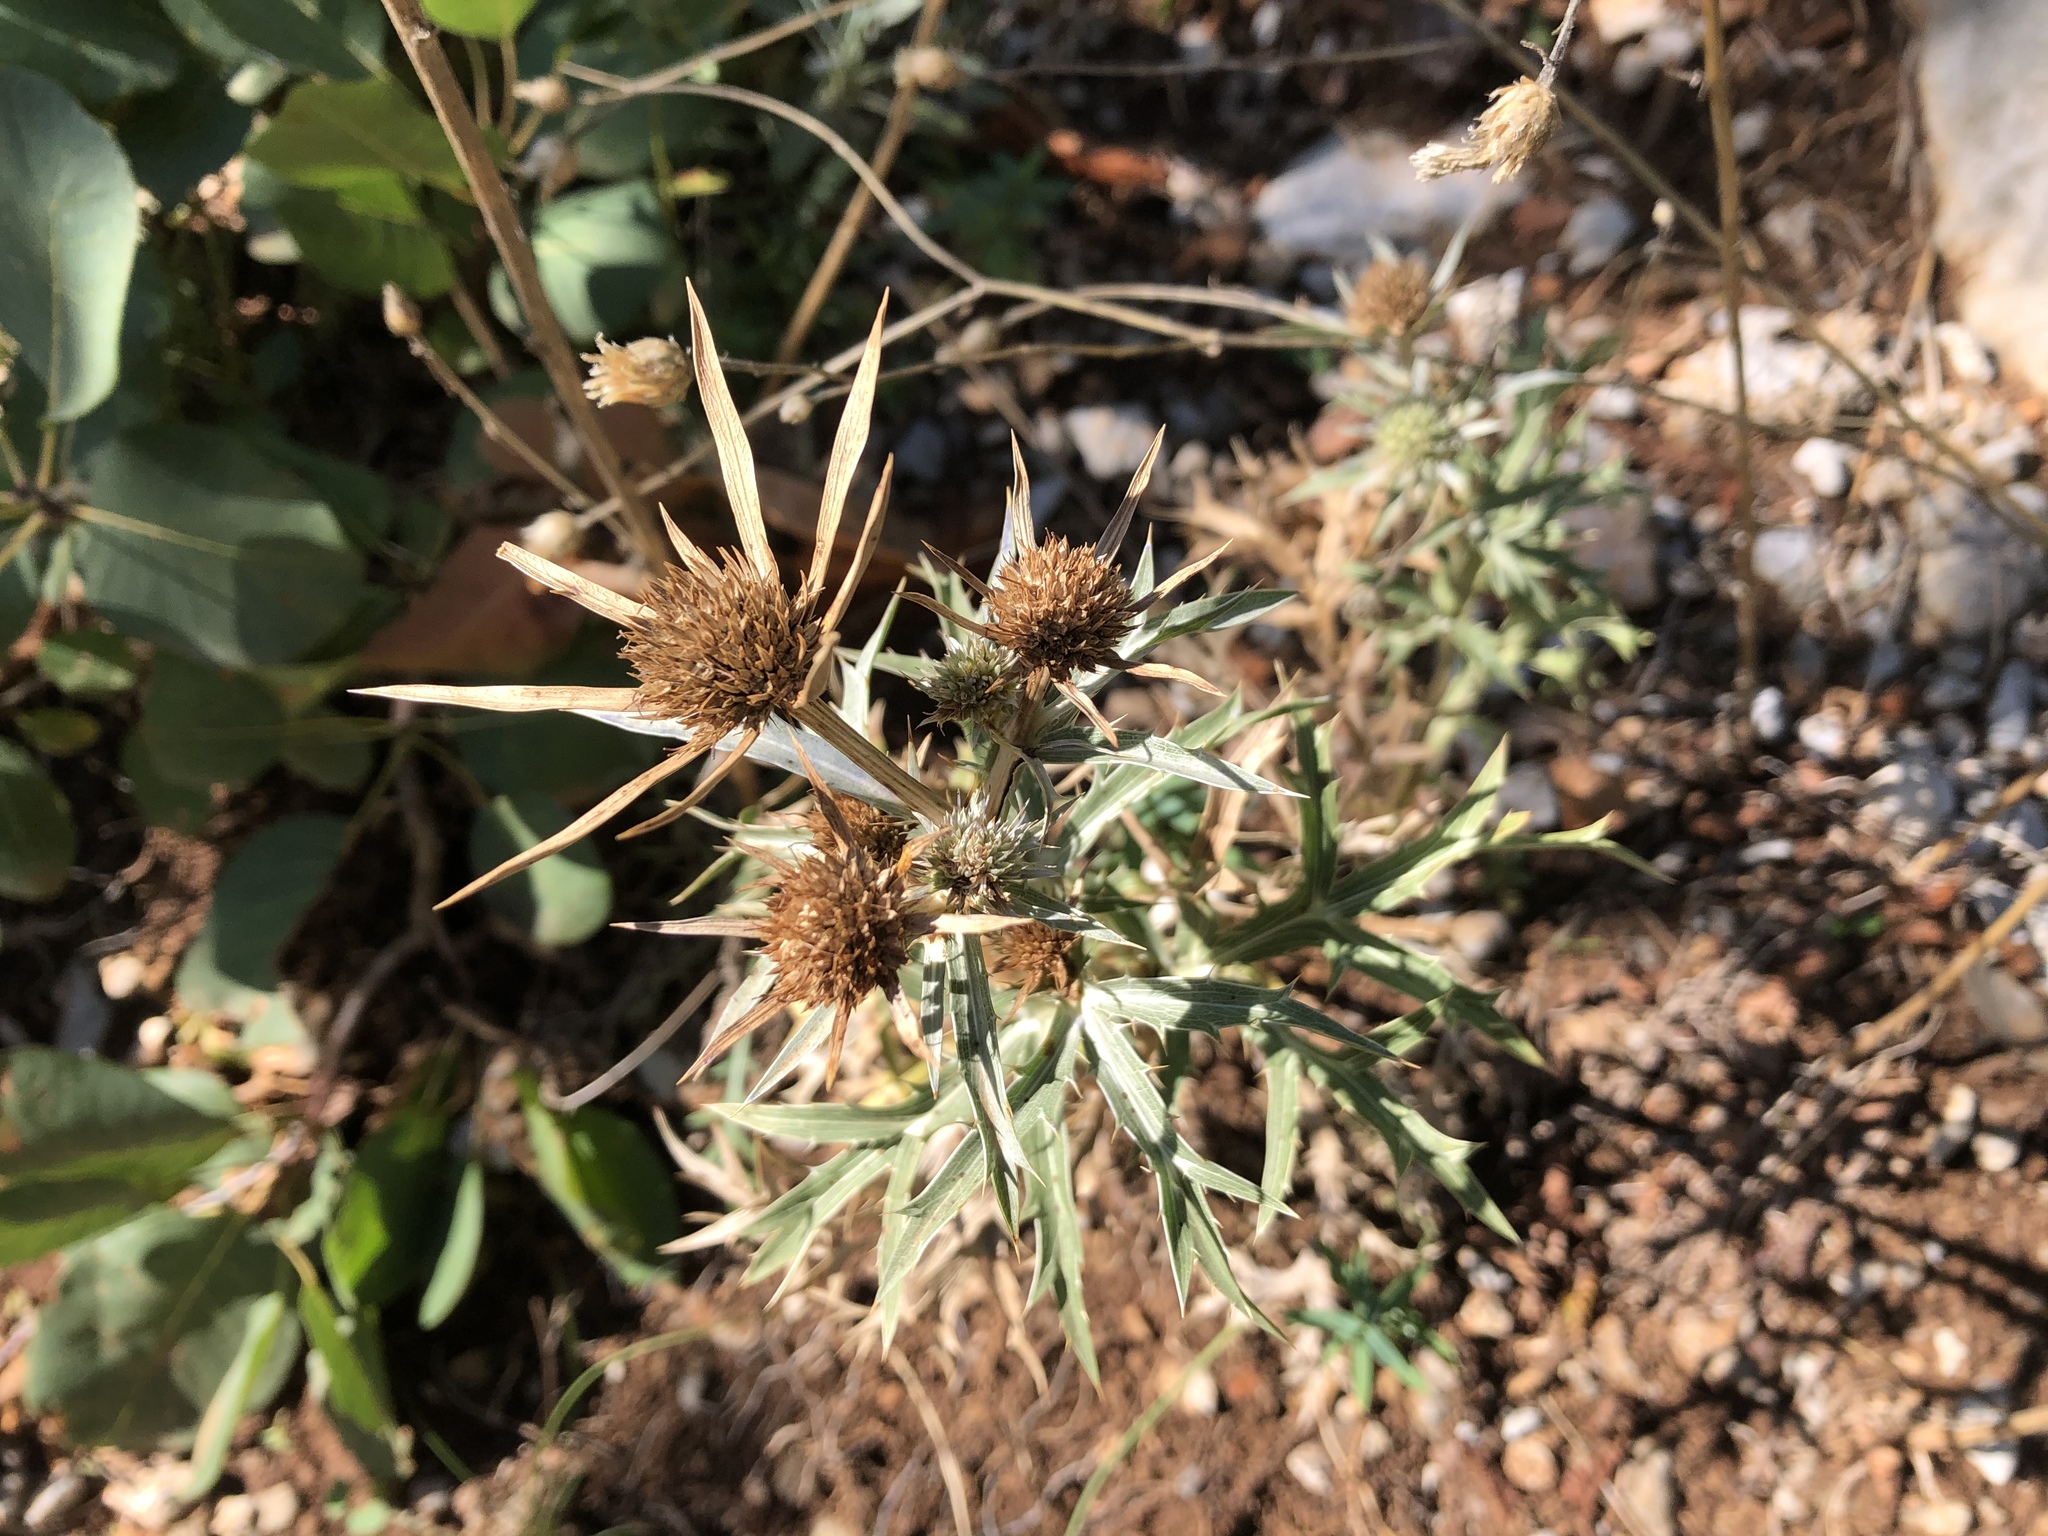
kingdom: Plantae
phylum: Tracheophyta
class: Magnoliopsida
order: Apiales
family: Apiaceae
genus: Eryngium
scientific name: Eryngium campestre
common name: Field eryngo
